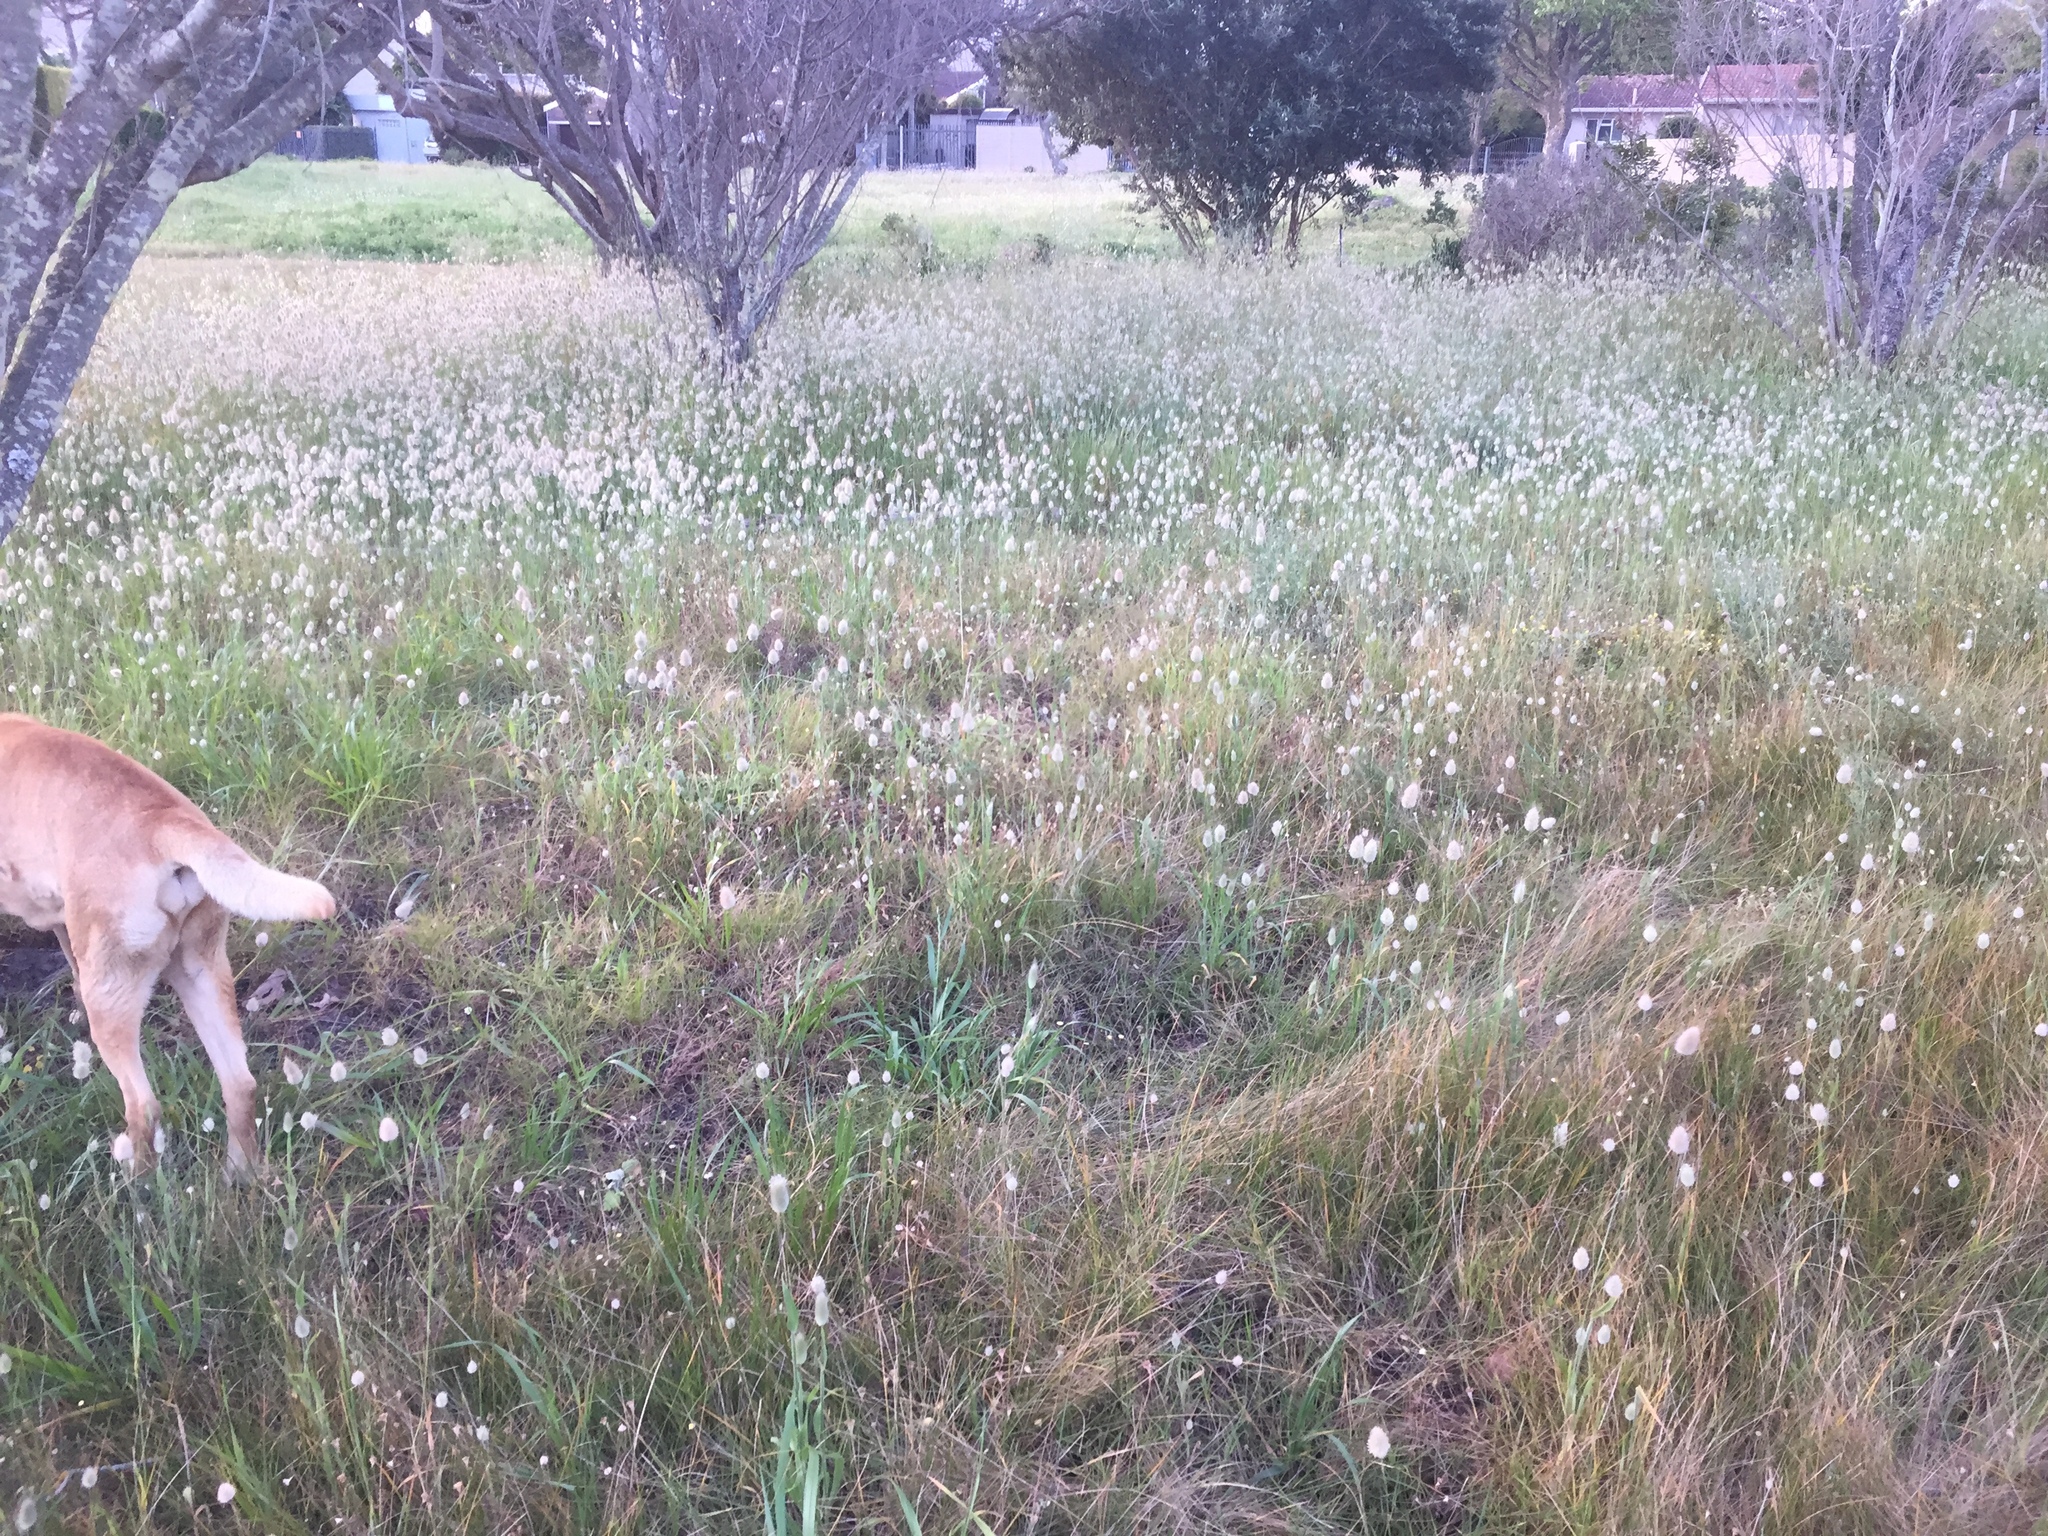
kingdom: Plantae
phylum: Tracheophyta
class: Liliopsida
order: Poales
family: Poaceae
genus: Lagurus
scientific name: Lagurus ovatus
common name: Hare's-tail
